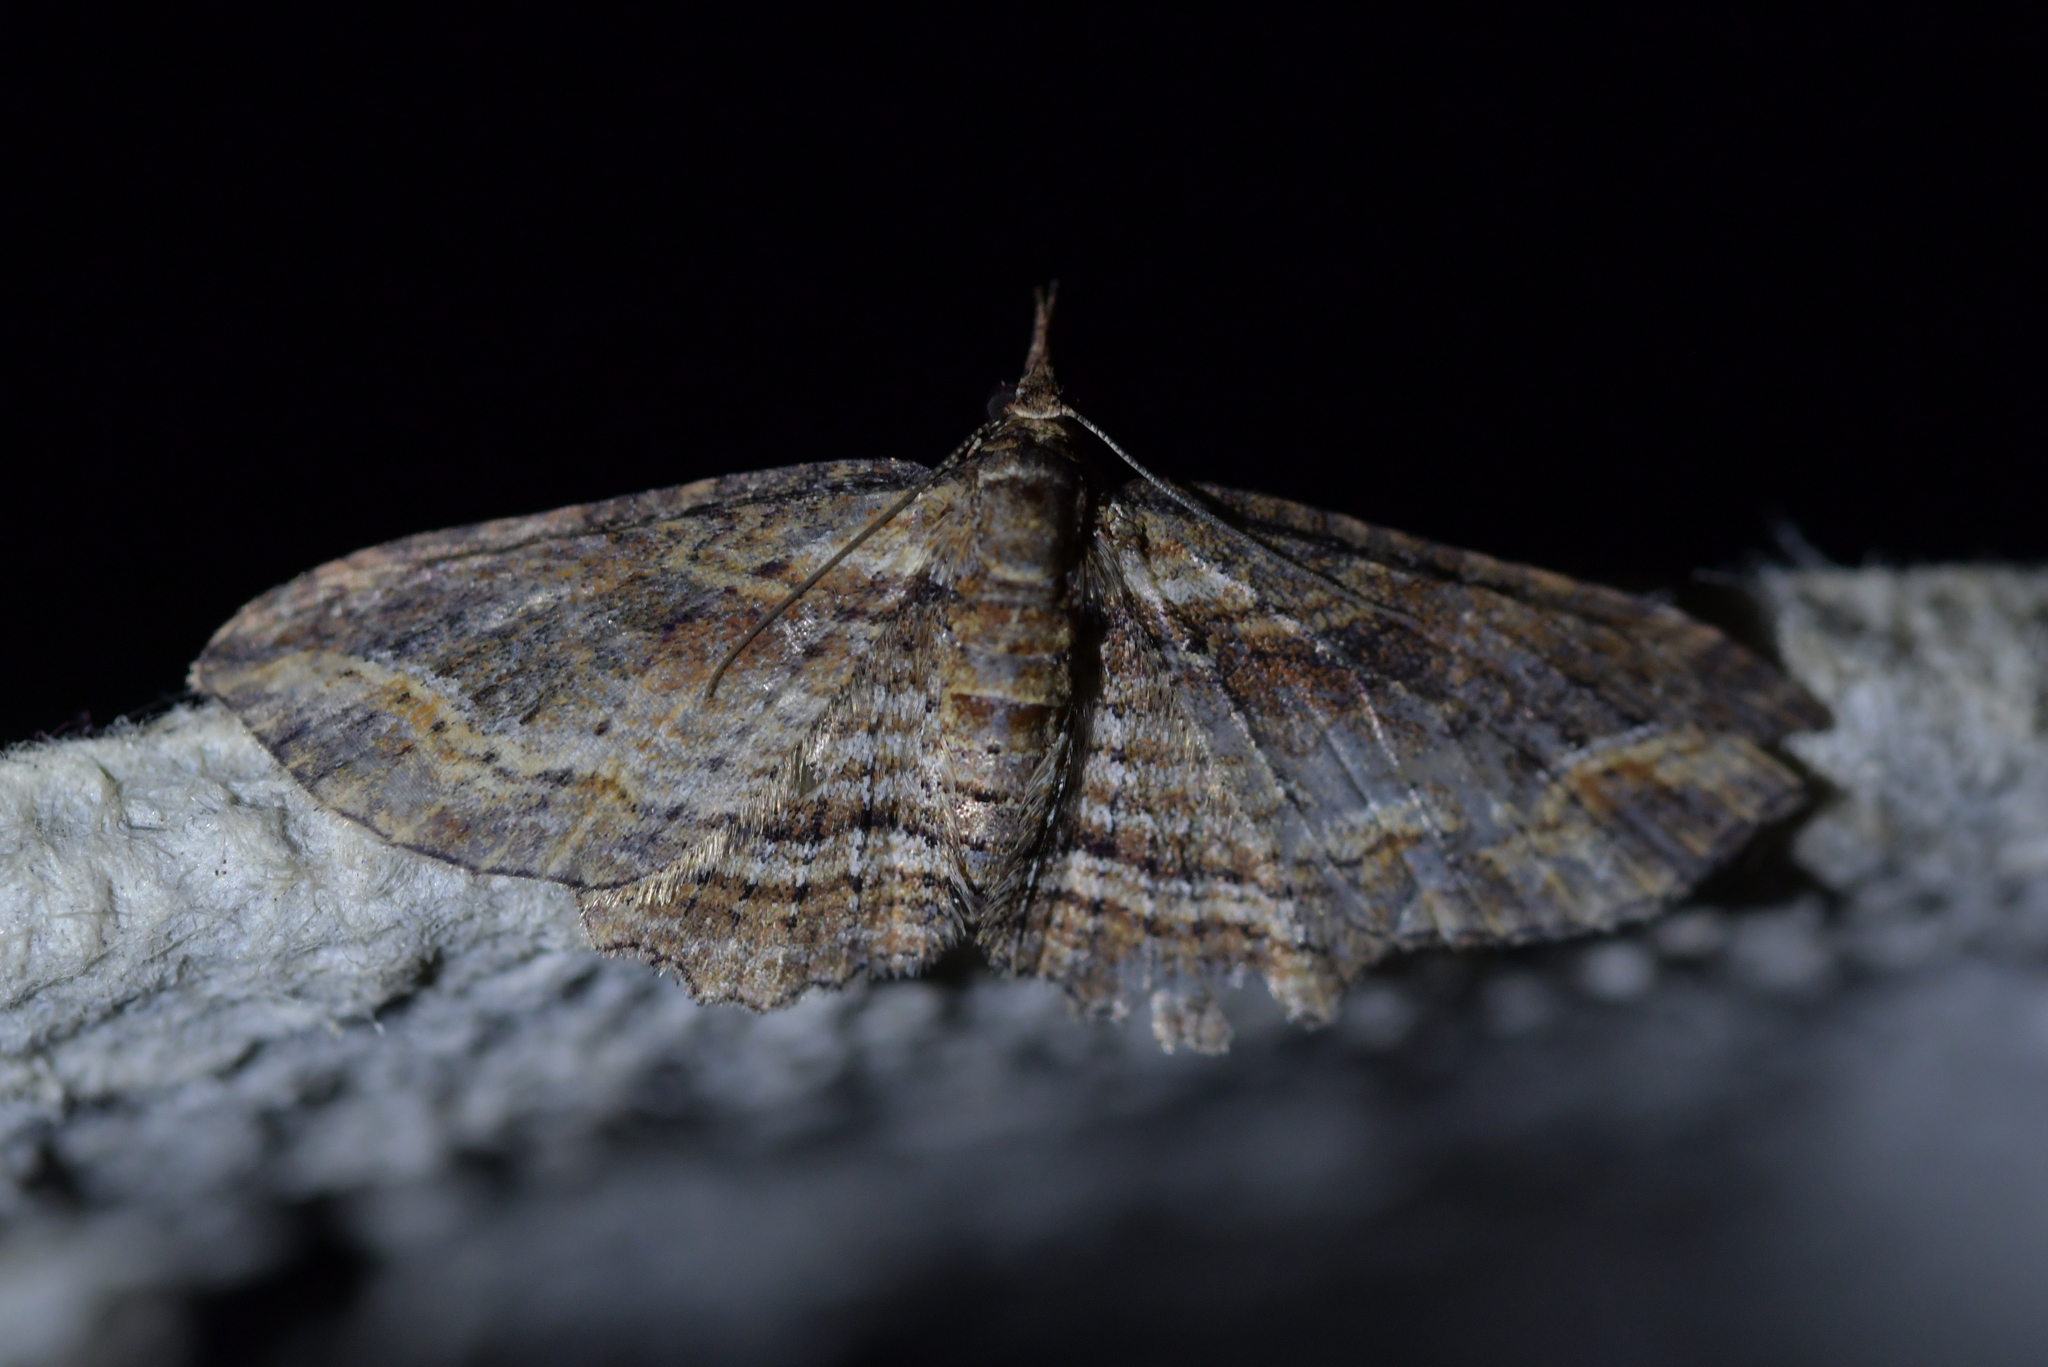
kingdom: Animalia
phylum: Arthropoda
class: Insecta
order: Lepidoptera
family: Geometridae
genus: Chloroclystis
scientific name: Chloroclystis filata
